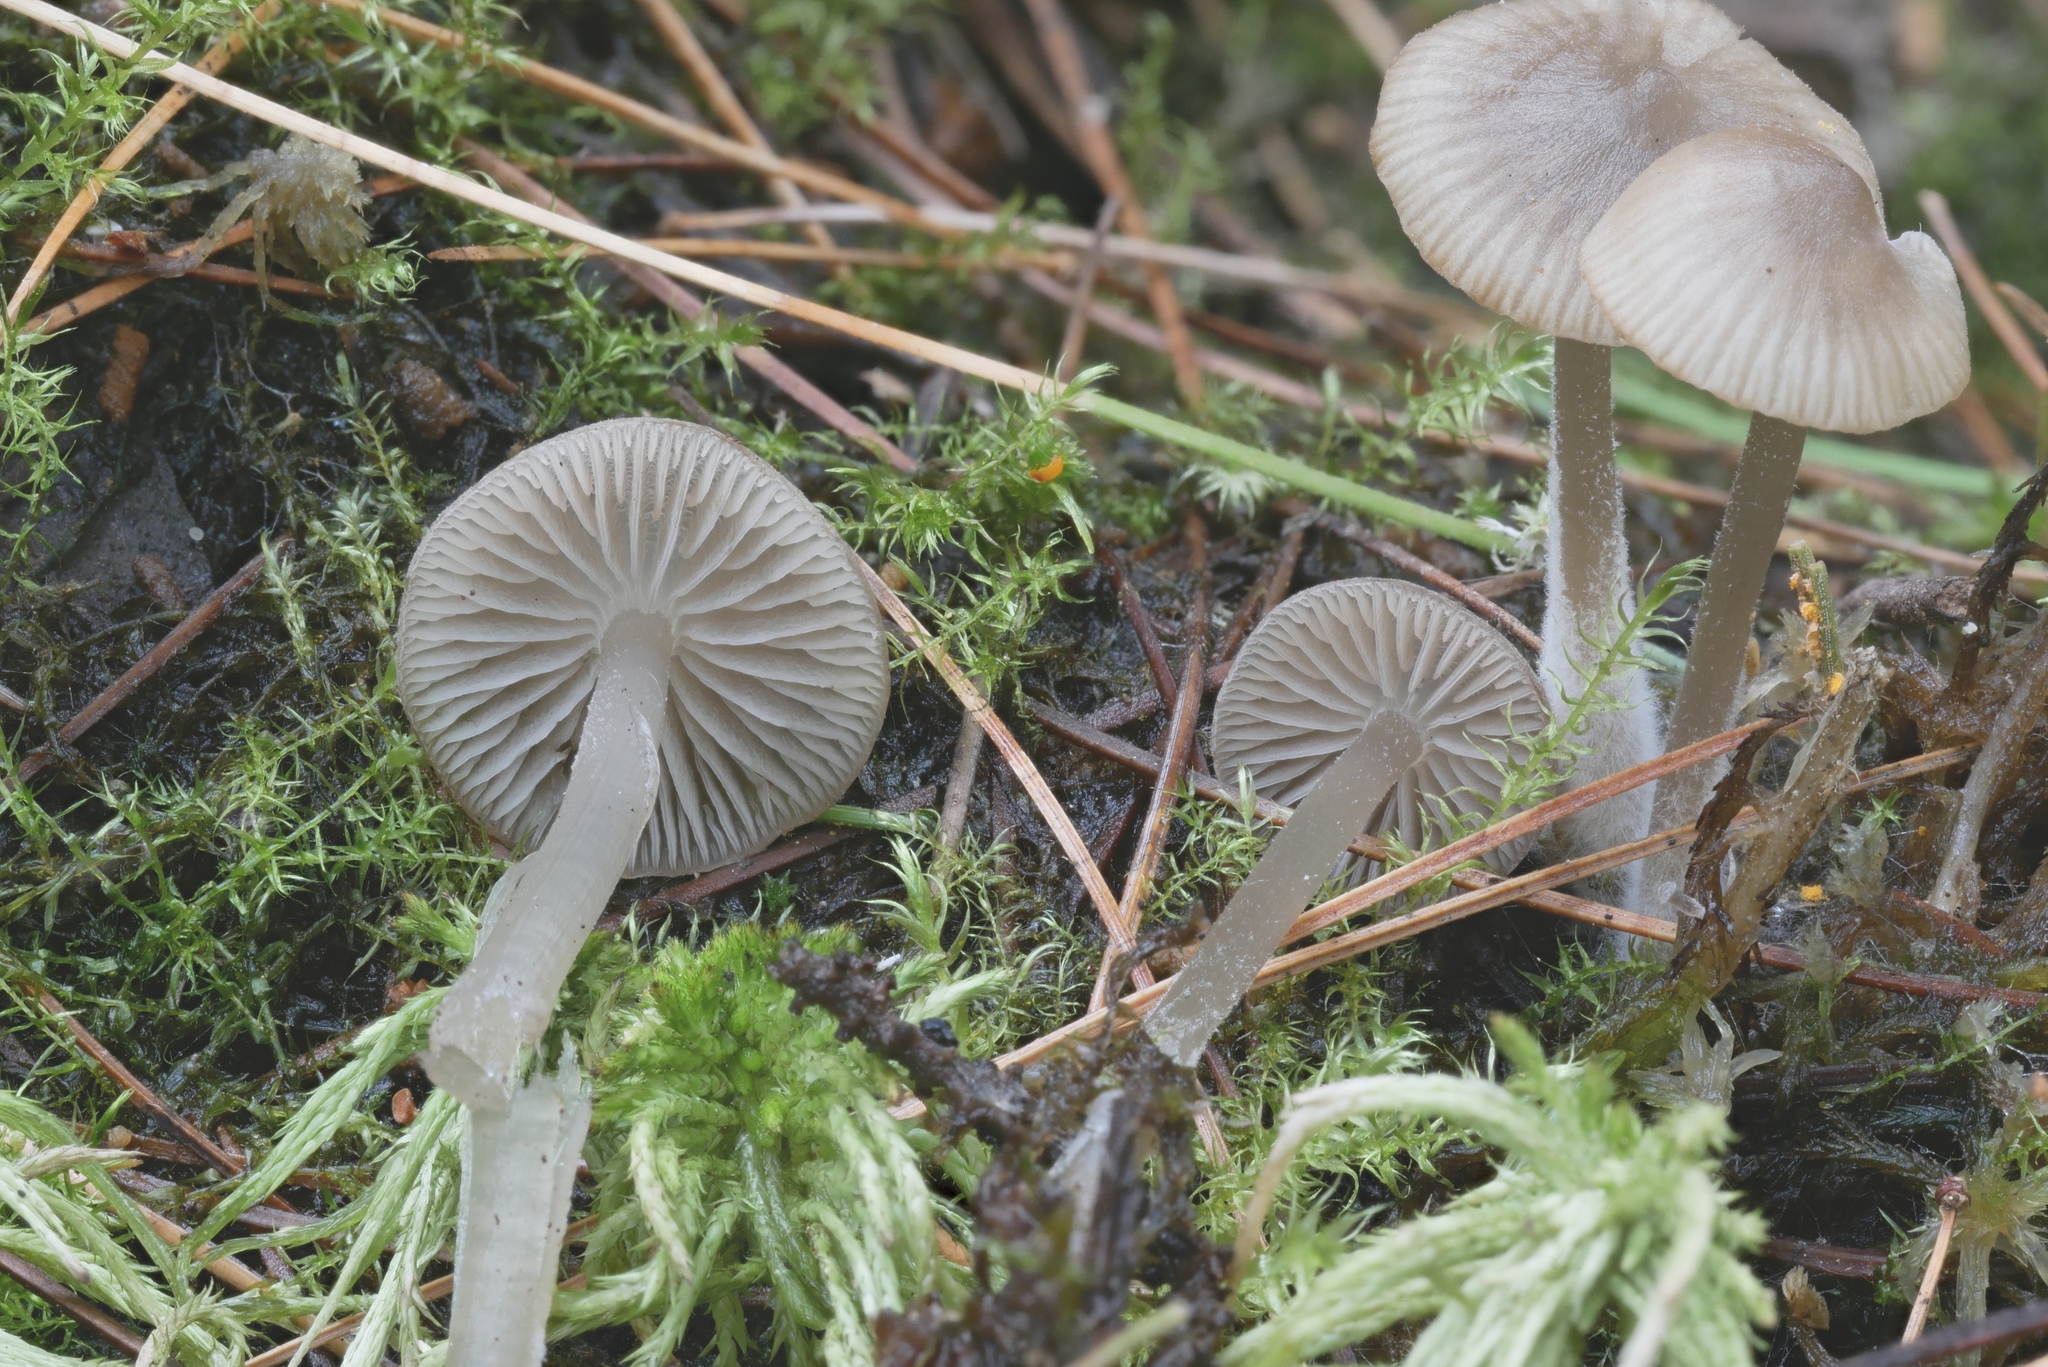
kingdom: Fungi
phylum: Basidiomycota
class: Agaricomycetes
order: Agaricales
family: Lyophyllaceae
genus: Sphagnurus
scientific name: Sphagnurus paluster
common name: Sphagnum greyling
